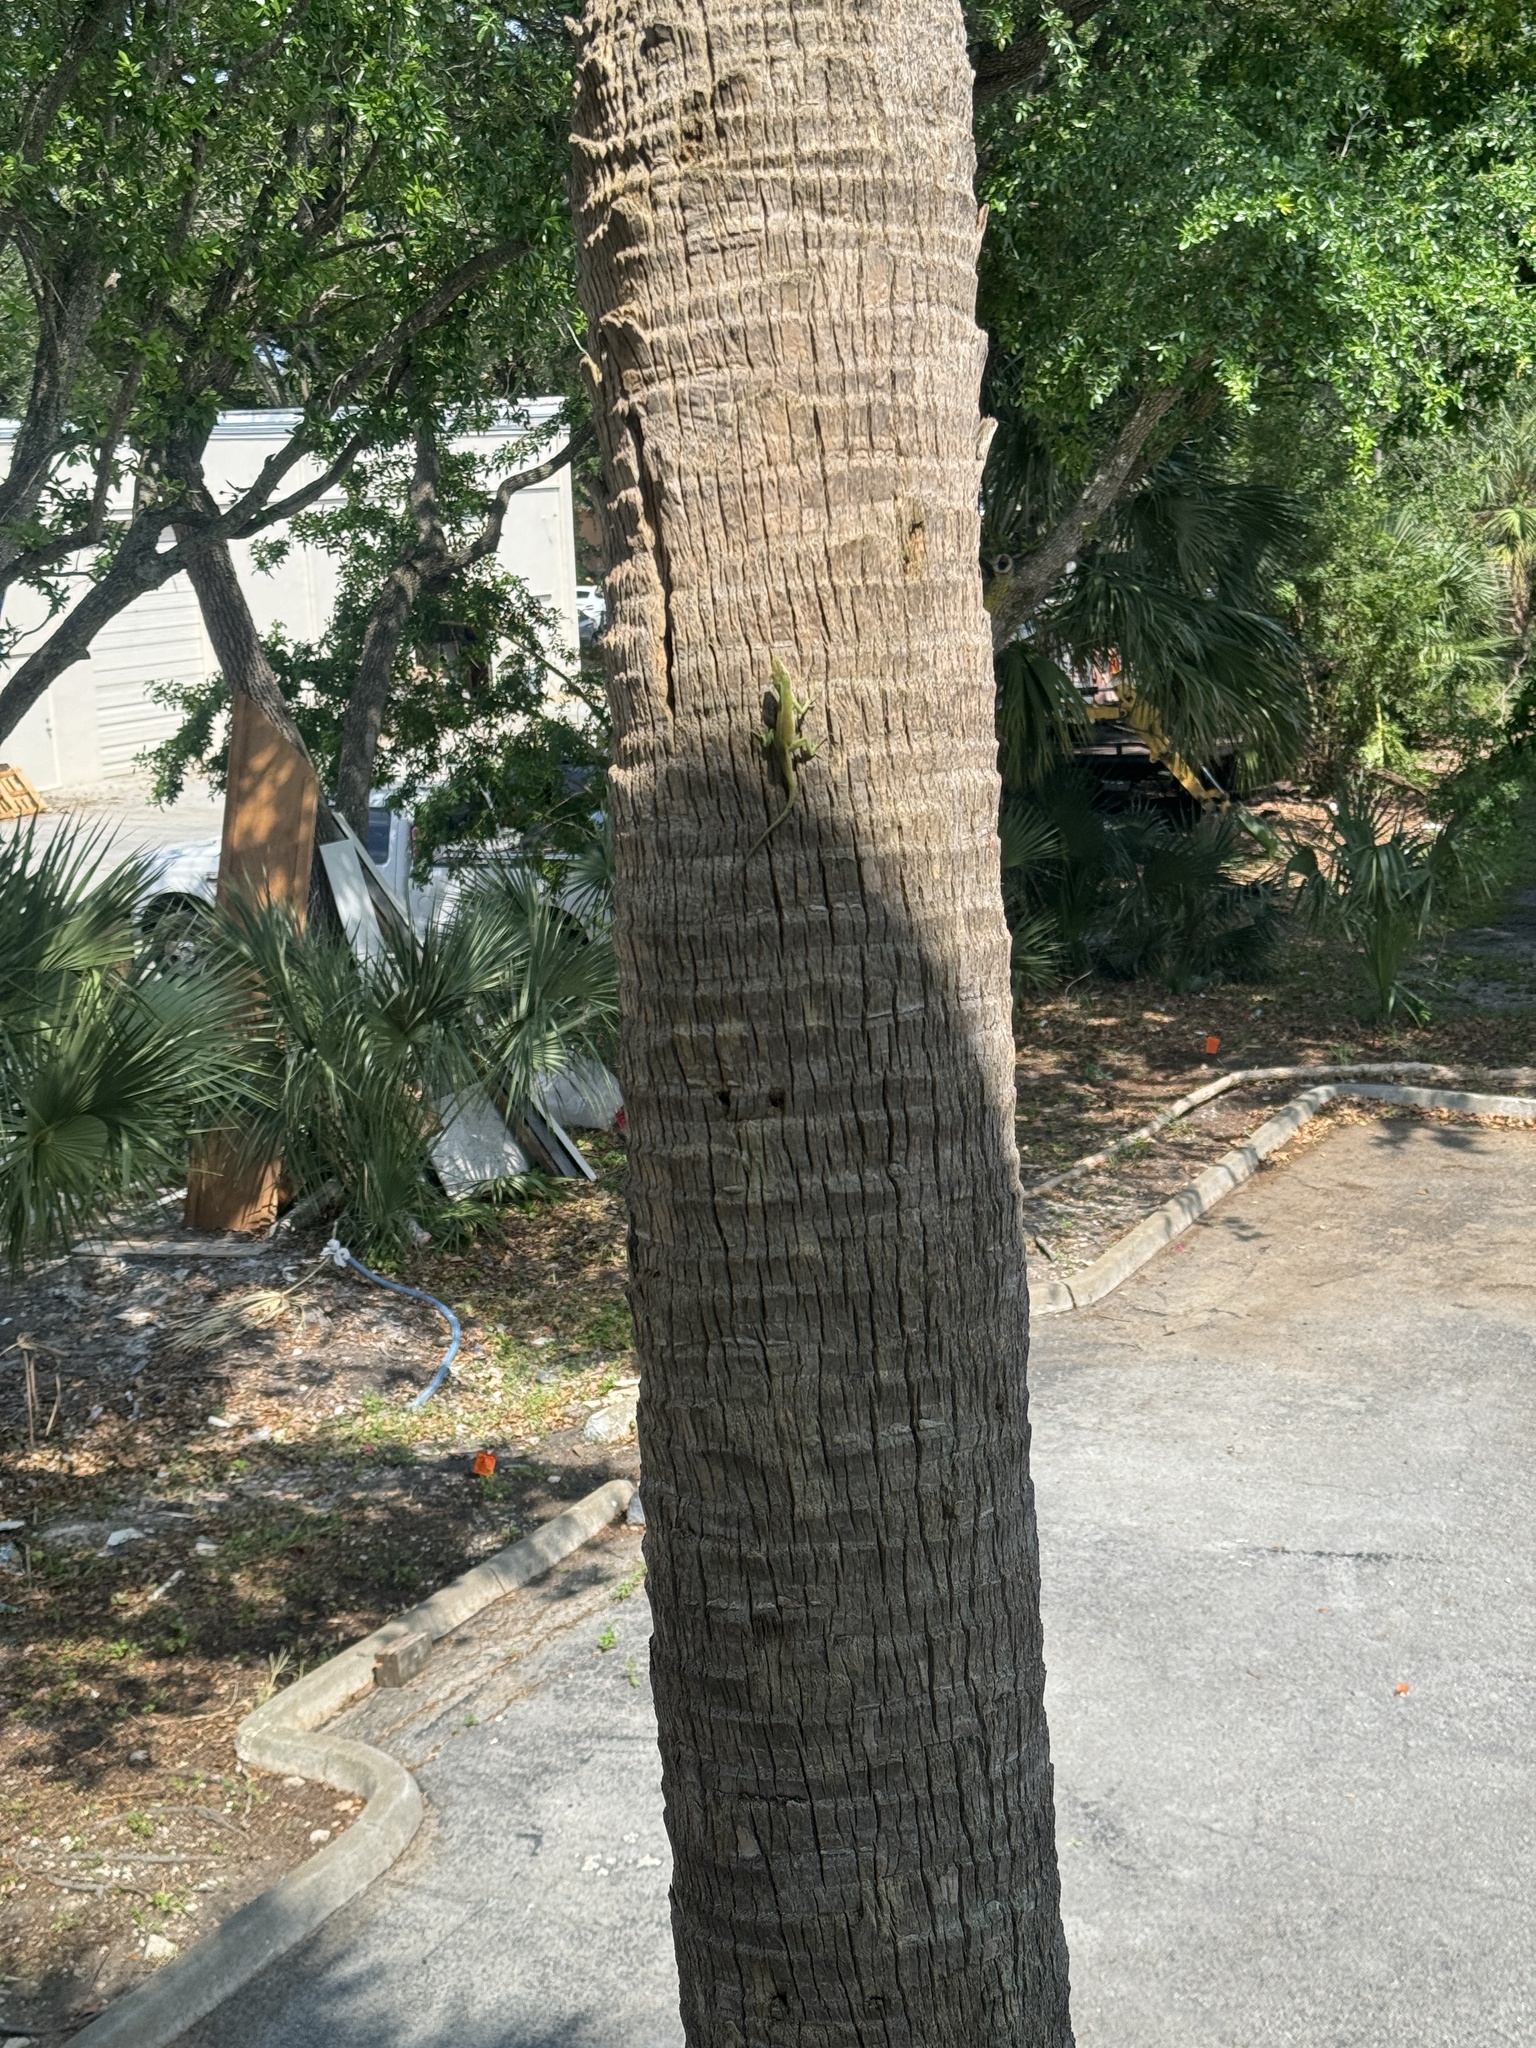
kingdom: Animalia
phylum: Chordata
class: Squamata
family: Dactyloidae
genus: Anolis
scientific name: Anolis carolinensis
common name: Green anole
